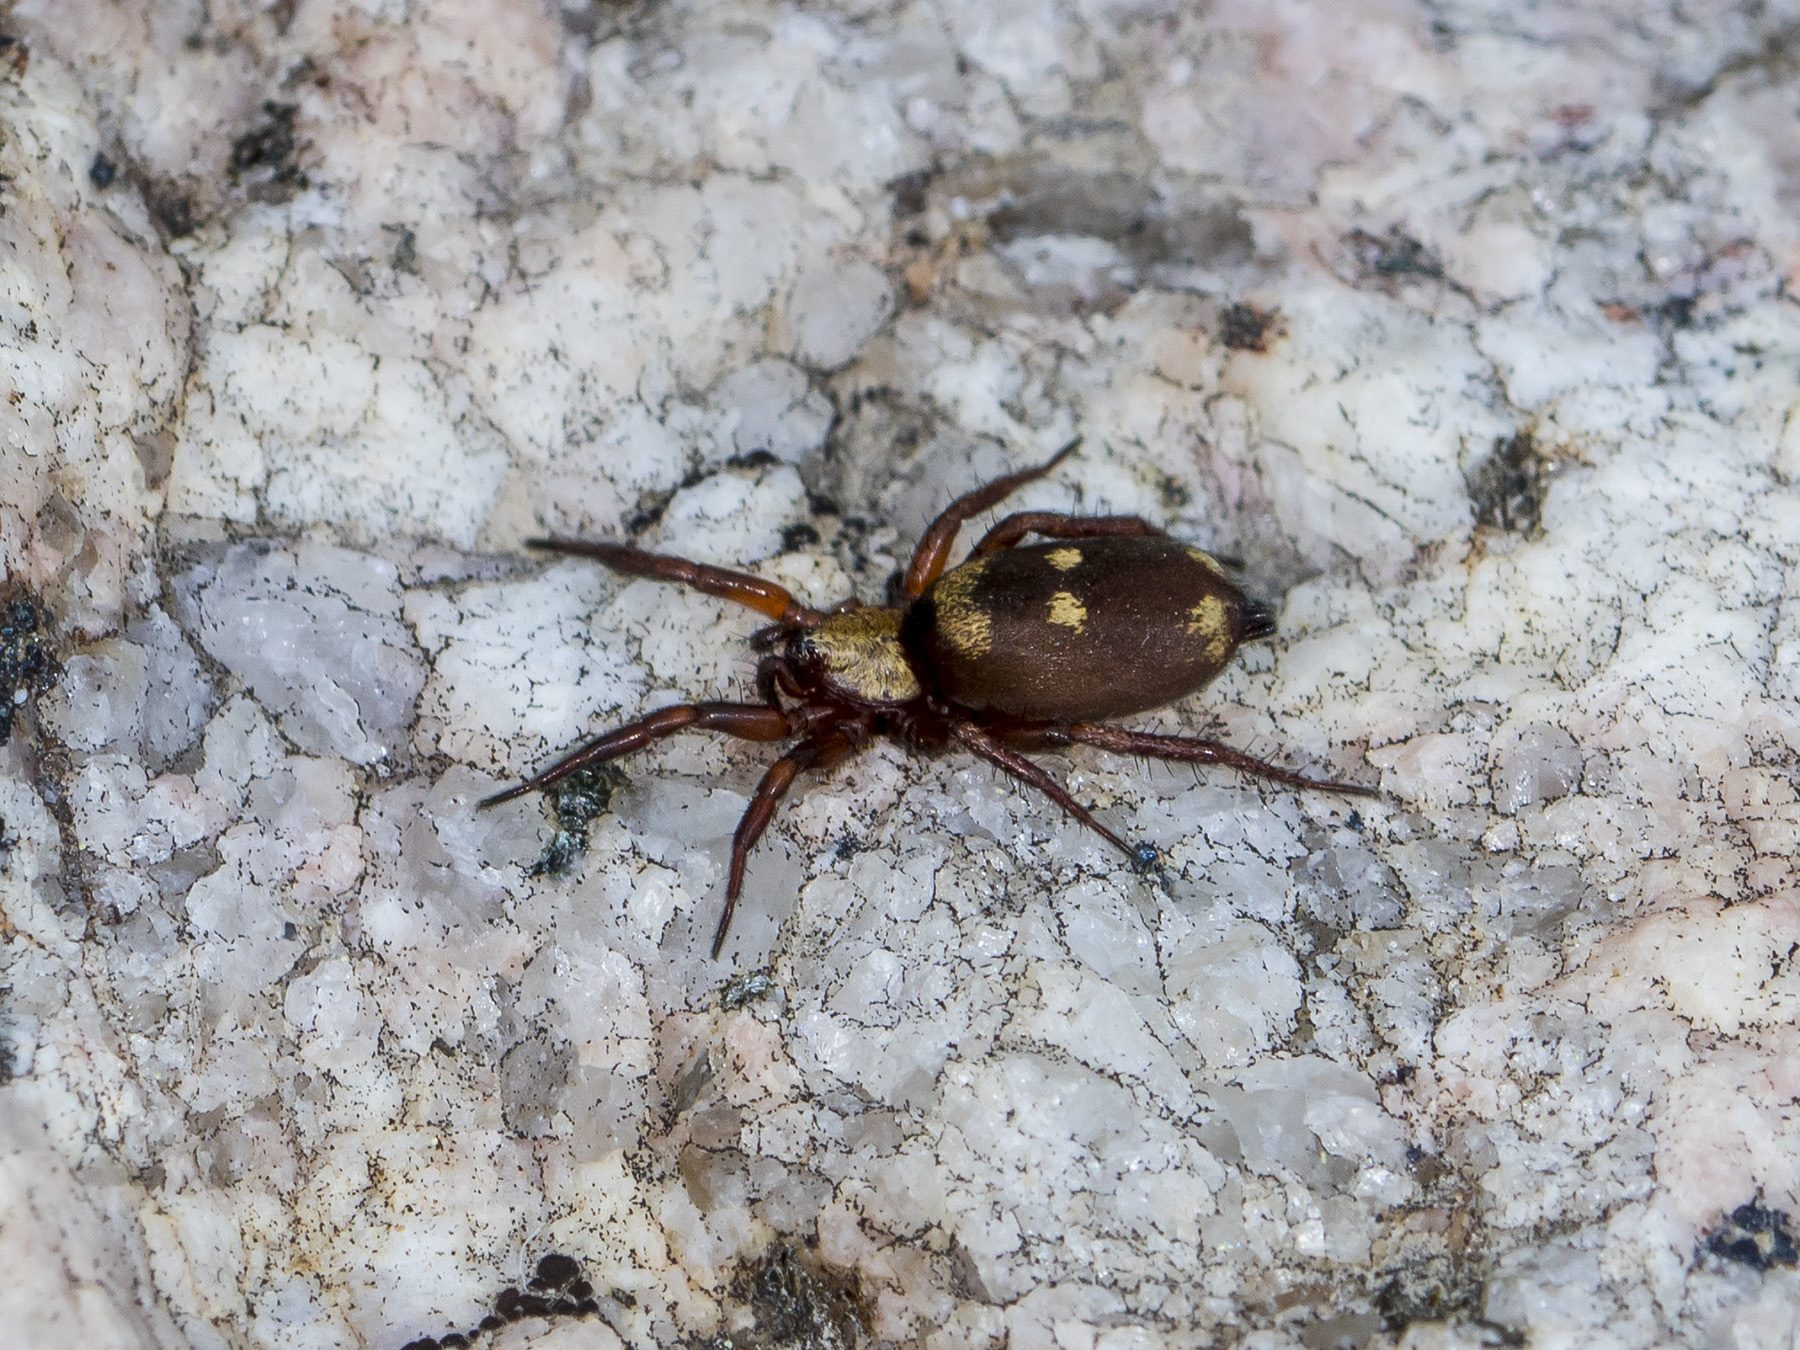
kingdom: Animalia
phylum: Arthropoda
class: Arachnida
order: Araneae
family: Gnaphosidae
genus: Callilepis
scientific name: Callilepis nocturna
